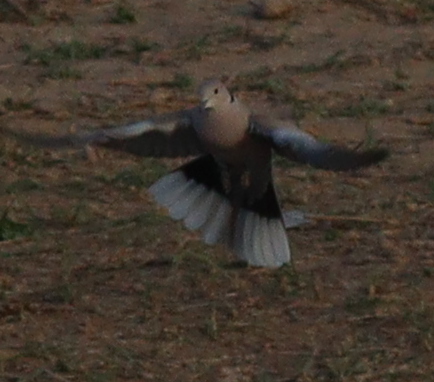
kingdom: Animalia
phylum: Chordata
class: Aves
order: Columbiformes
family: Columbidae
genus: Streptopelia
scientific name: Streptopelia decaocto
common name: Eurasian collared dove
